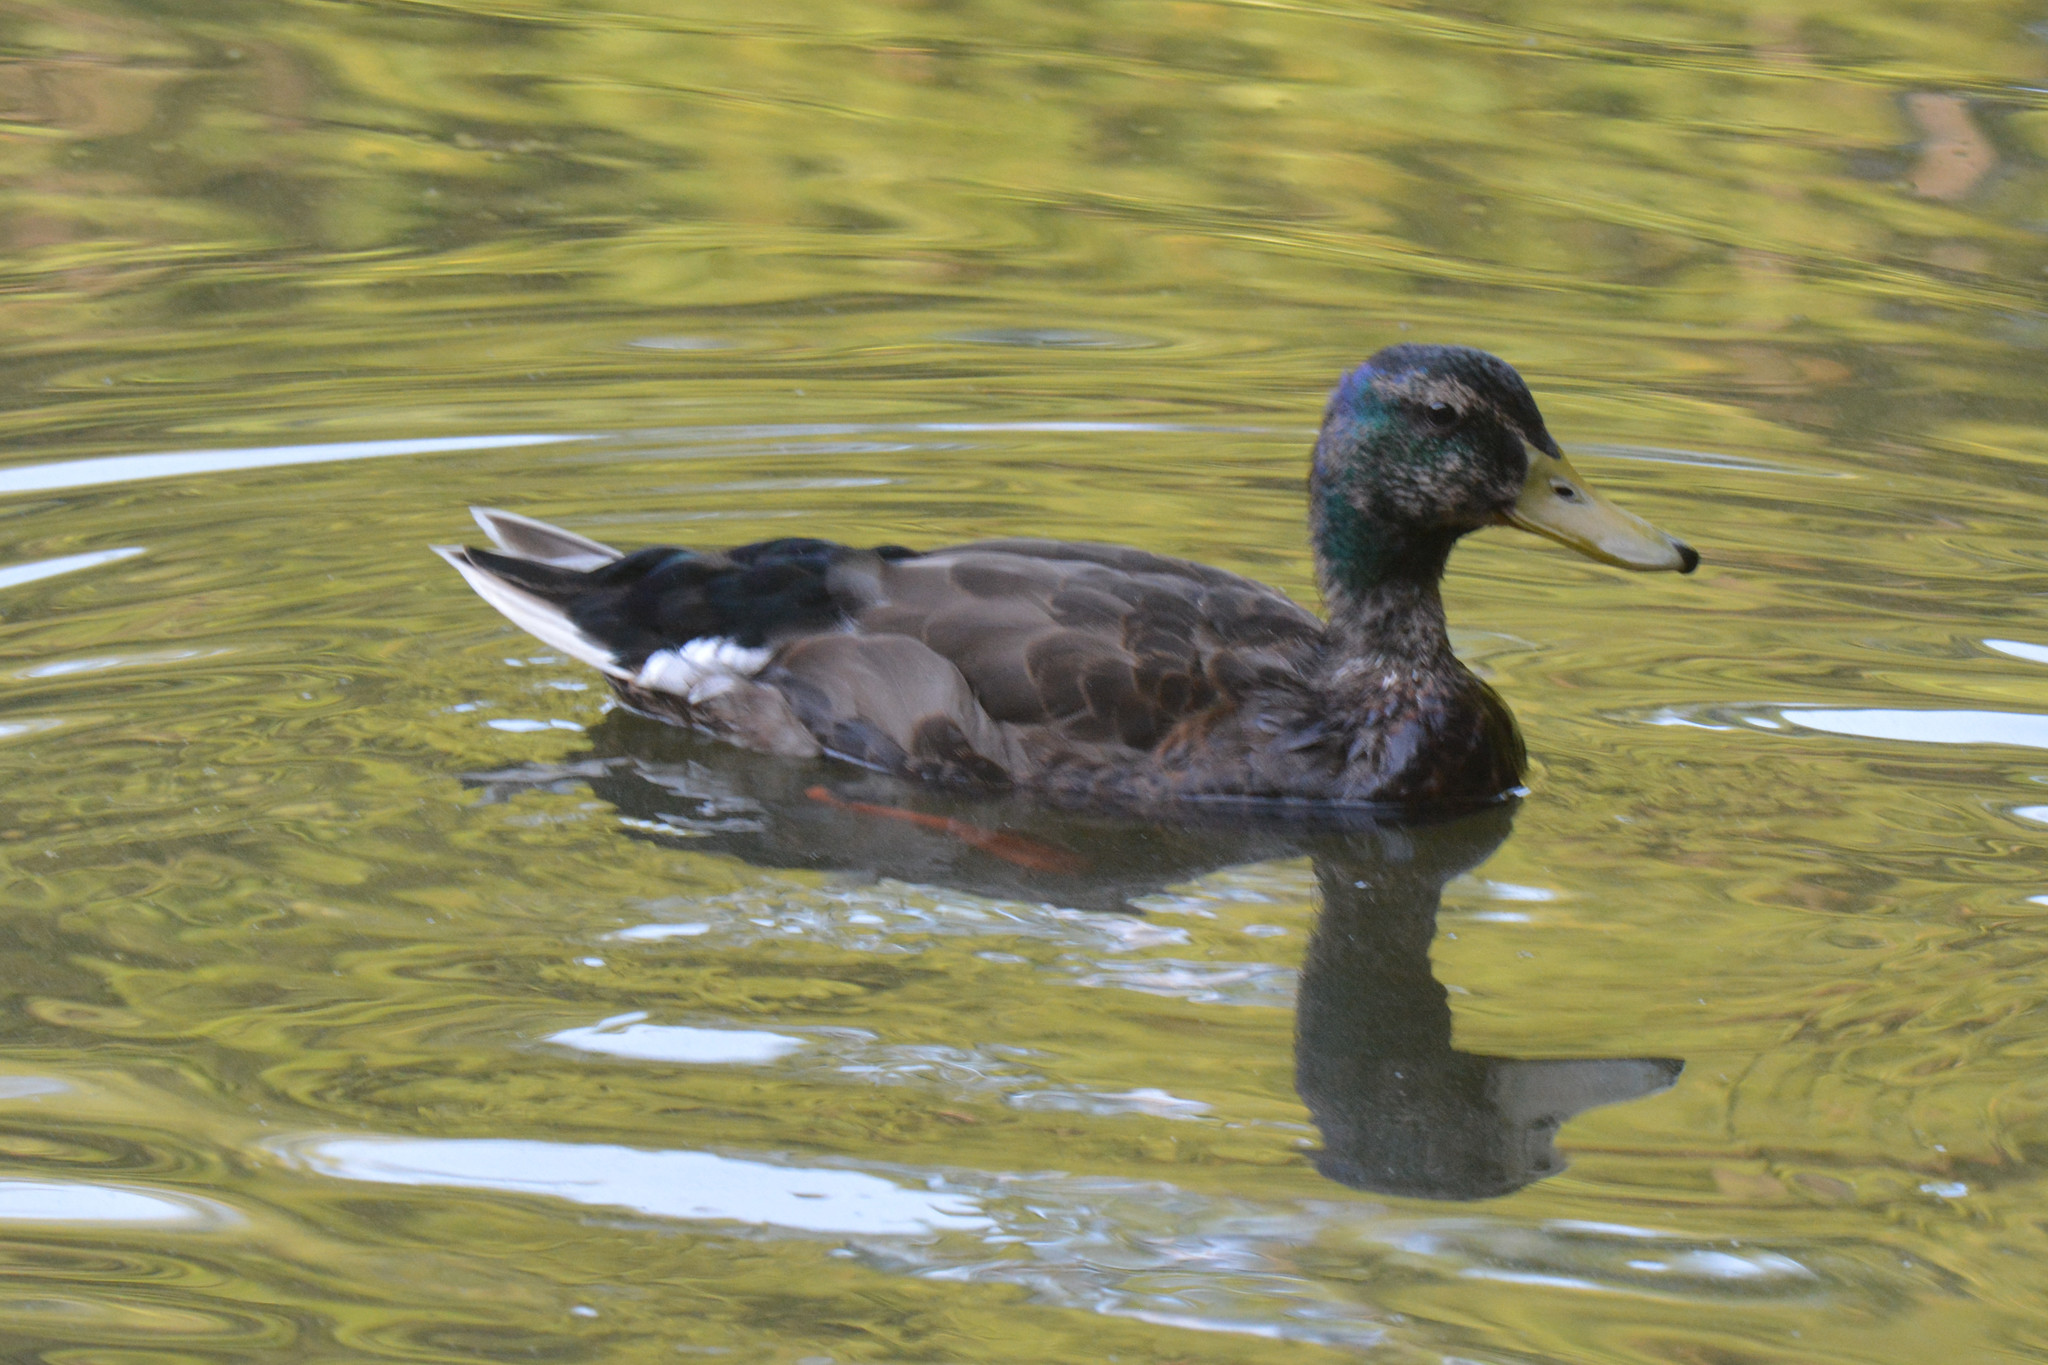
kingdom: Animalia
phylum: Chordata
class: Aves
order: Anseriformes
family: Anatidae
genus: Anas
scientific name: Anas platyrhynchos
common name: Mallard
